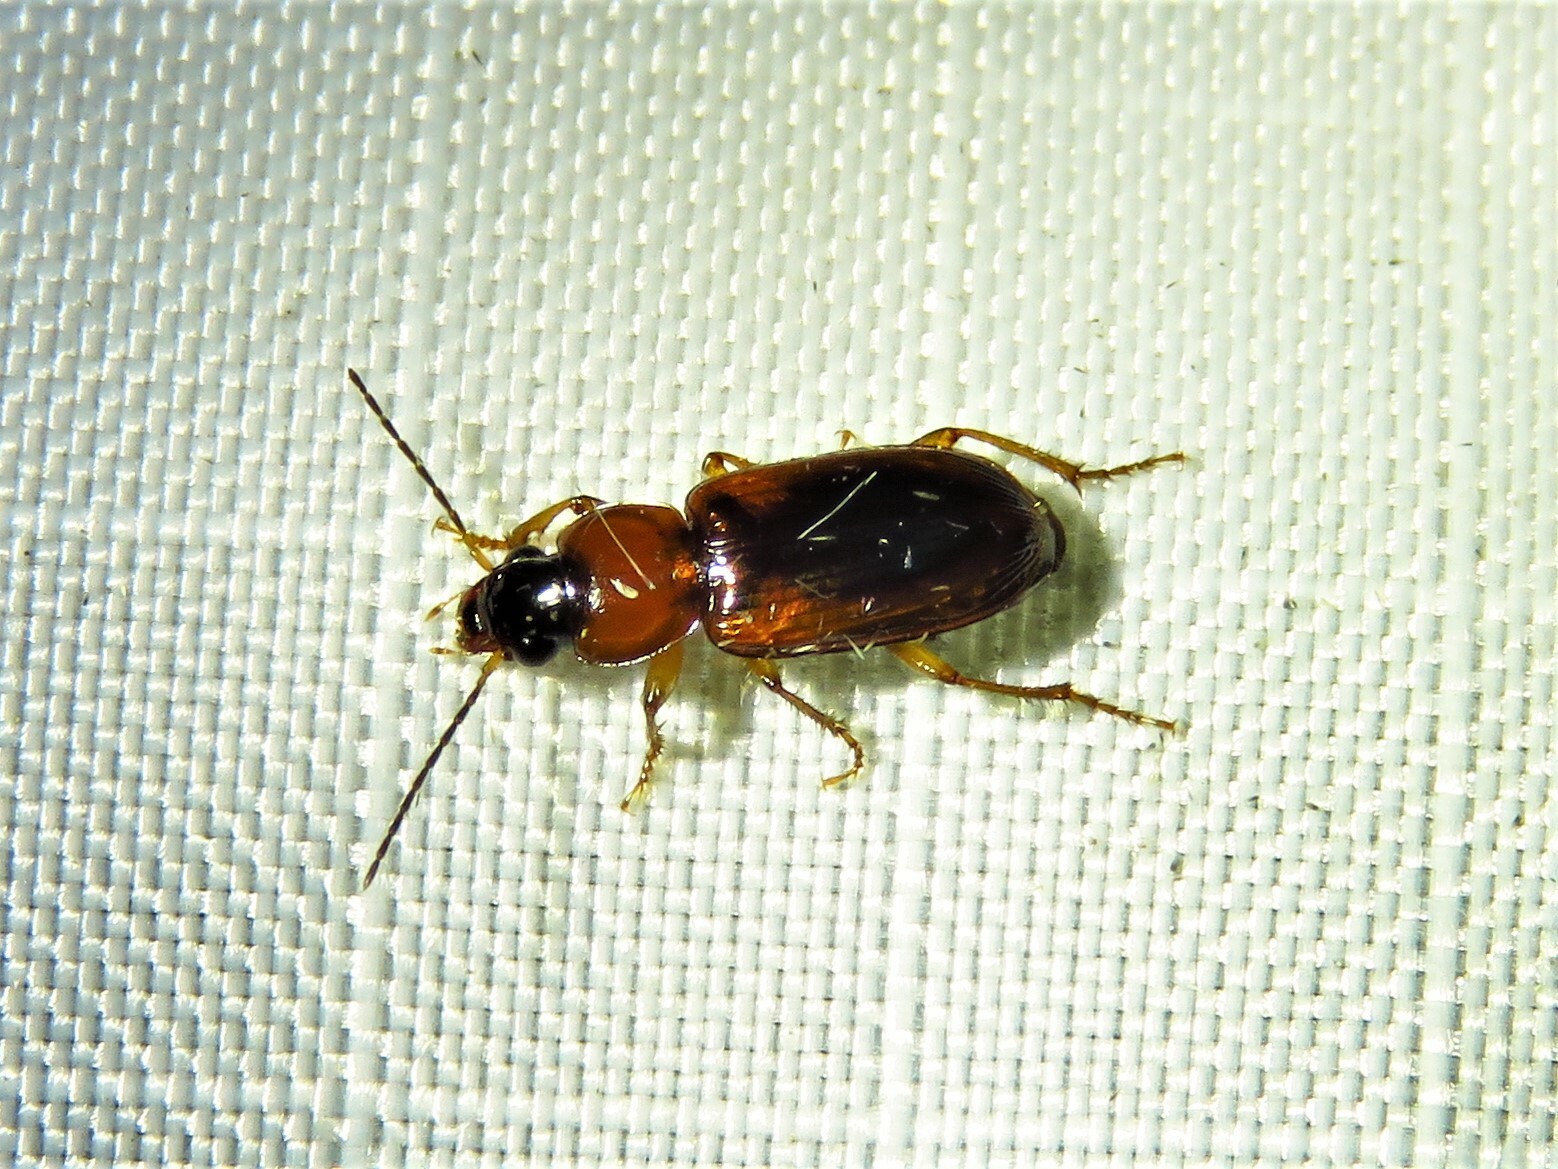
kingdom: Animalia
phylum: Arthropoda
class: Insecta
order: Coleoptera
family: Carabidae
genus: Stenolophus
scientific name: Stenolophus dissimilis
